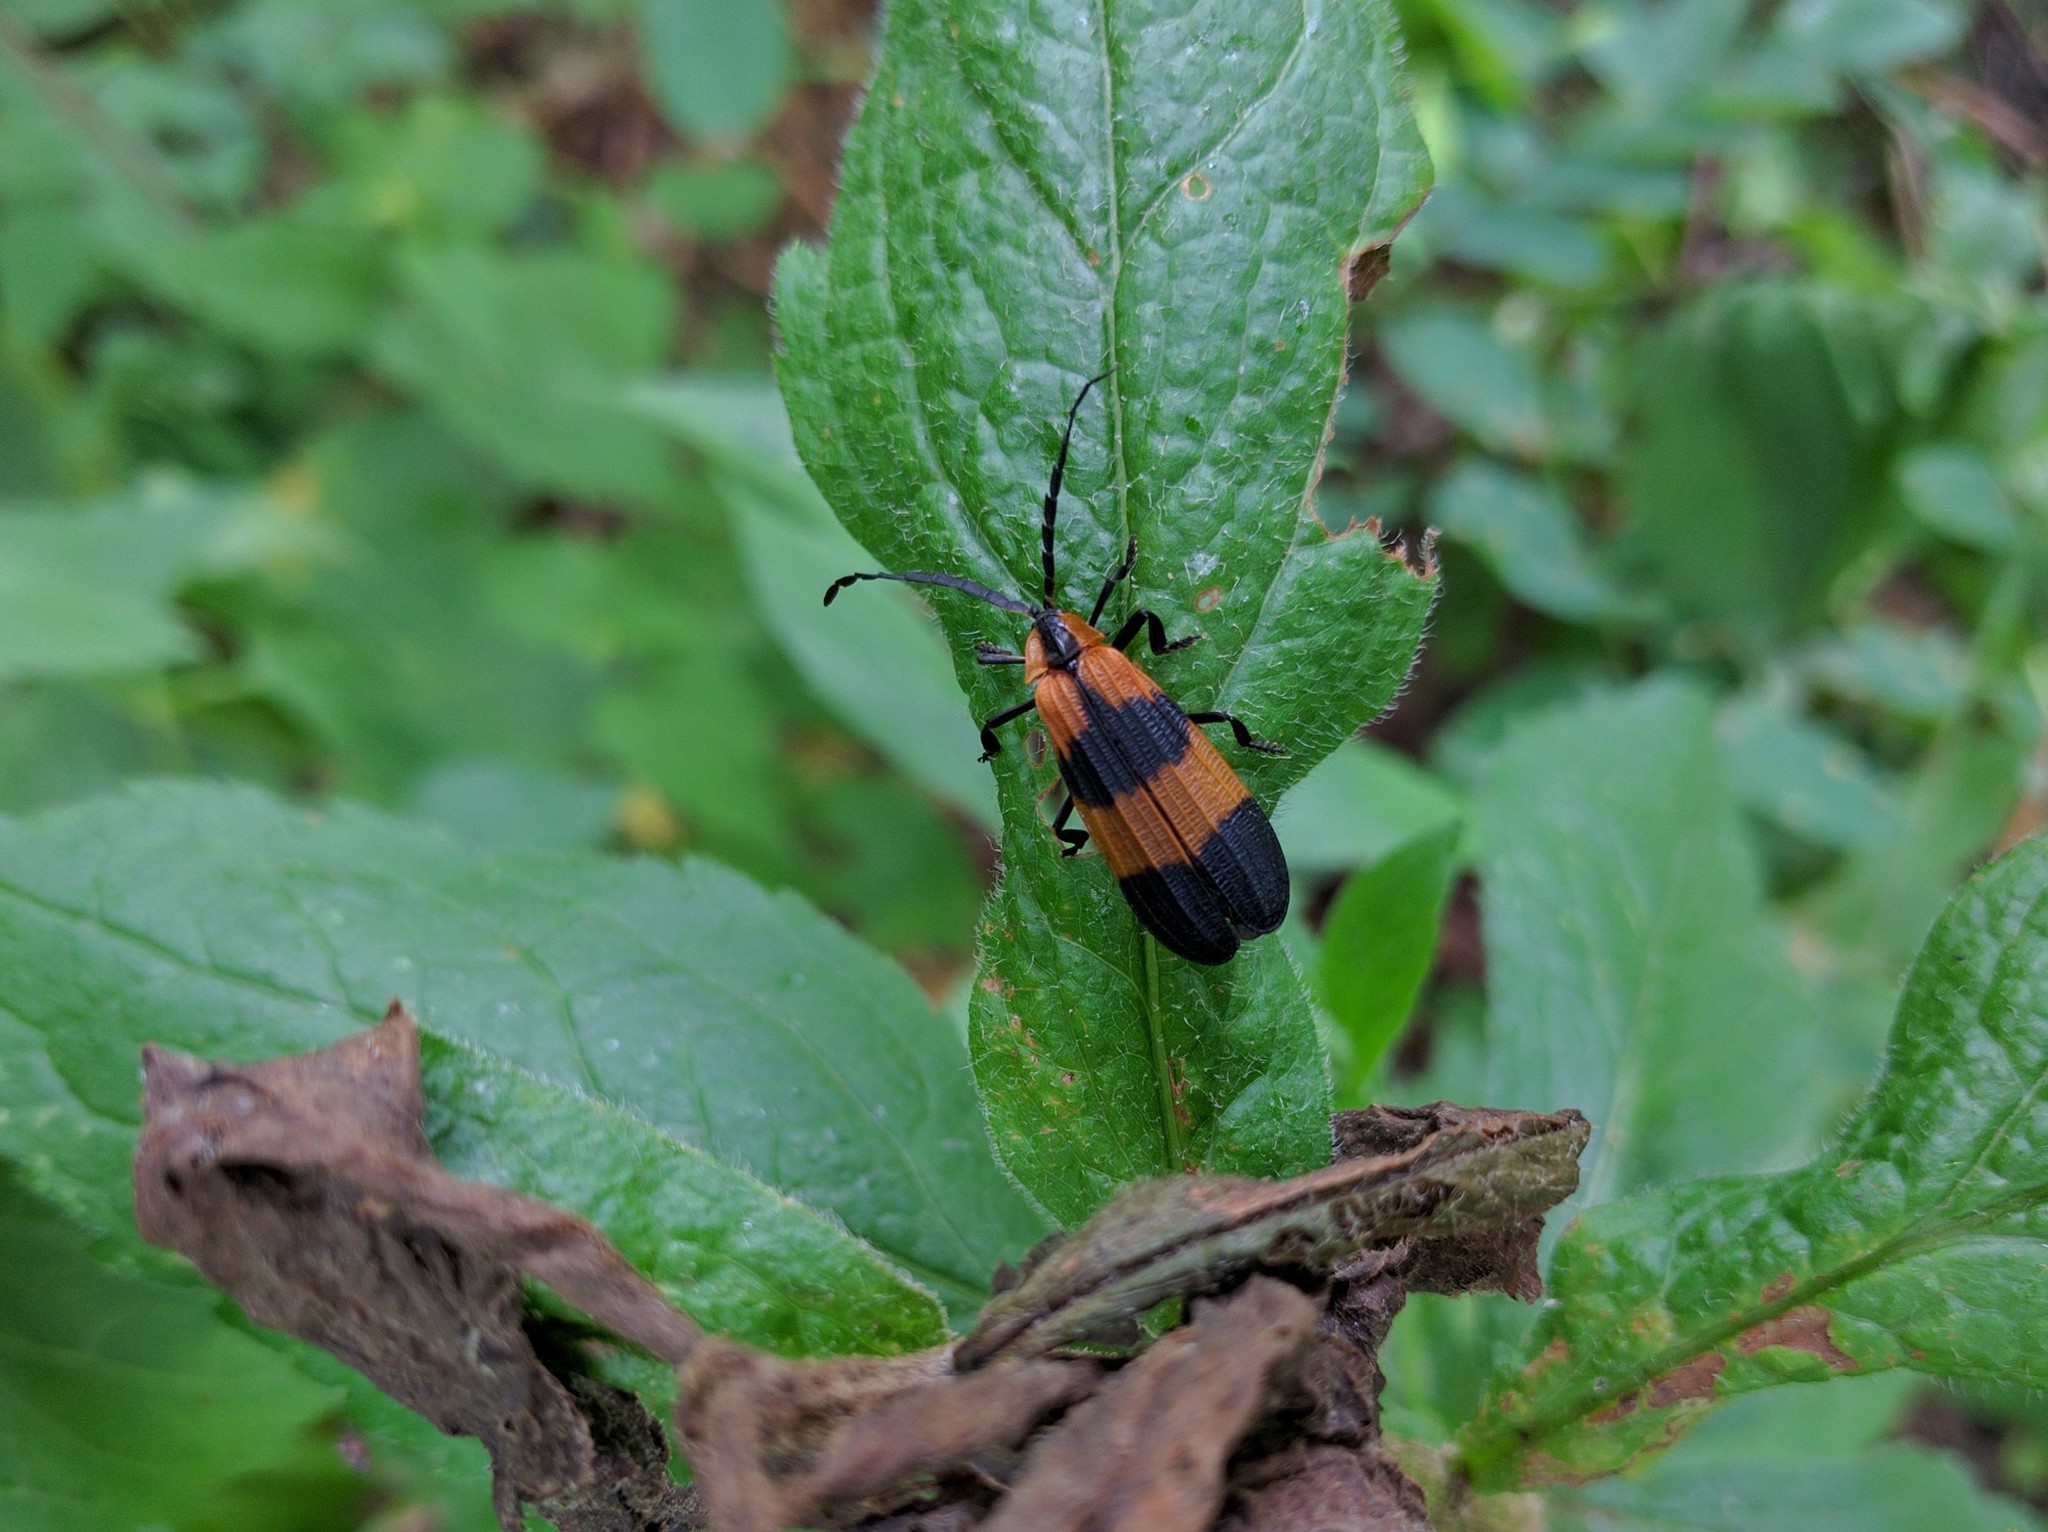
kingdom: Animalia
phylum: Arthropoda
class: Insecta
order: Coleoptera
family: Lycidae
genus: Calopteron
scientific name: Calopteron reticulatum
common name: Banded net-winged beetle
